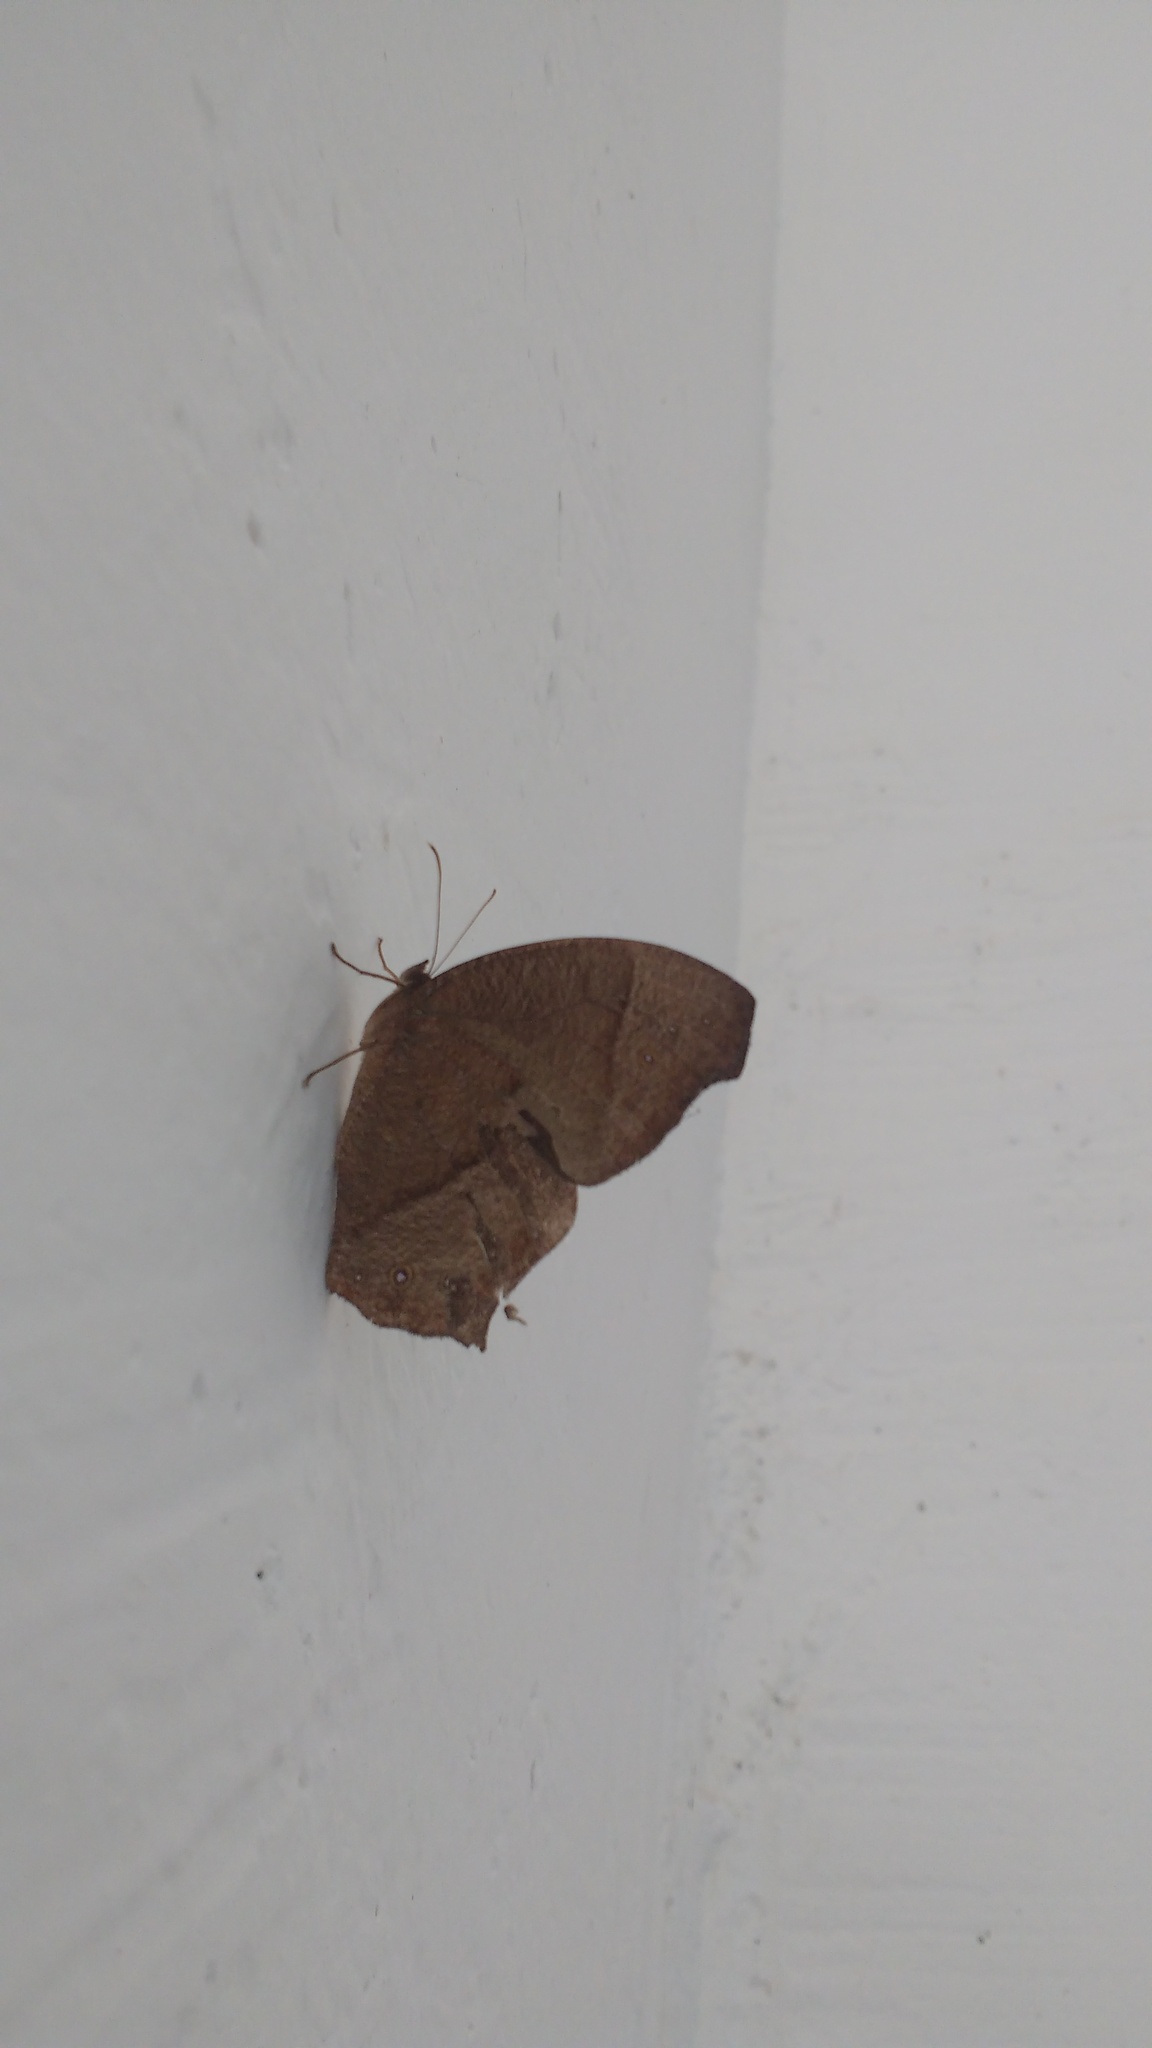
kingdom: Animalia
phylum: Arthropoda
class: Insecta
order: Lepidoptera
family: Nymphalidae
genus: Melanitis
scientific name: Melanitis phedima
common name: Dark evening brown
